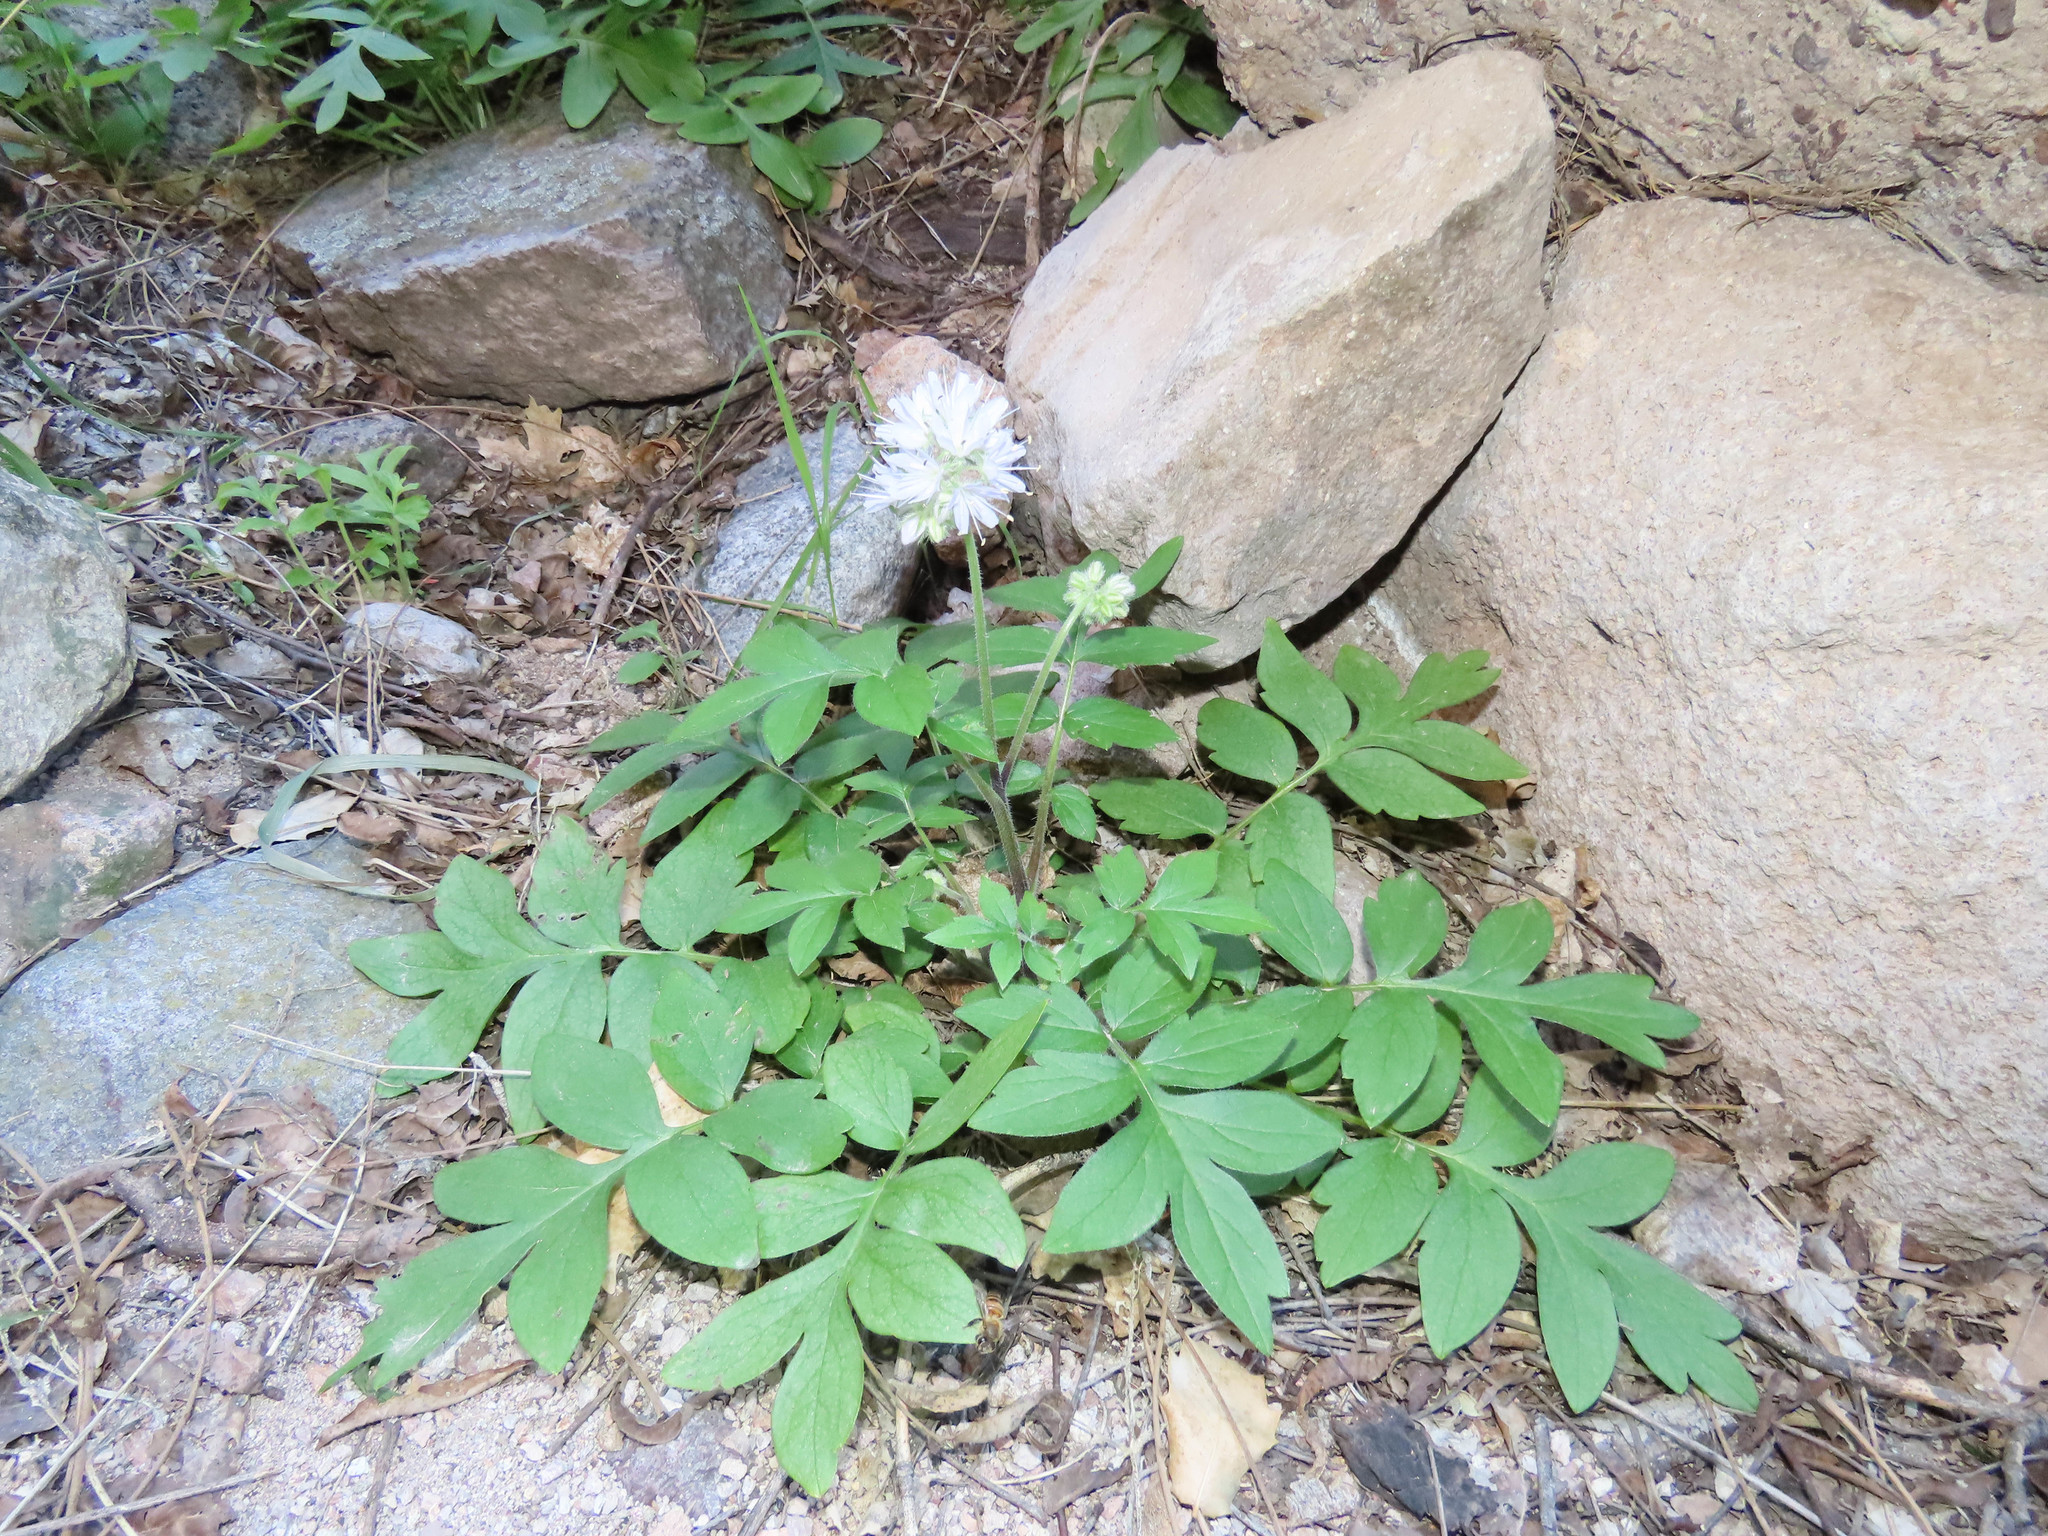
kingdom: Plantae
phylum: Tracheophyta
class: Magnoliopsida
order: Boraginales
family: Hydrophyllaceae
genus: Hydrophyllum
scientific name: Hydrophyllum occidentale
